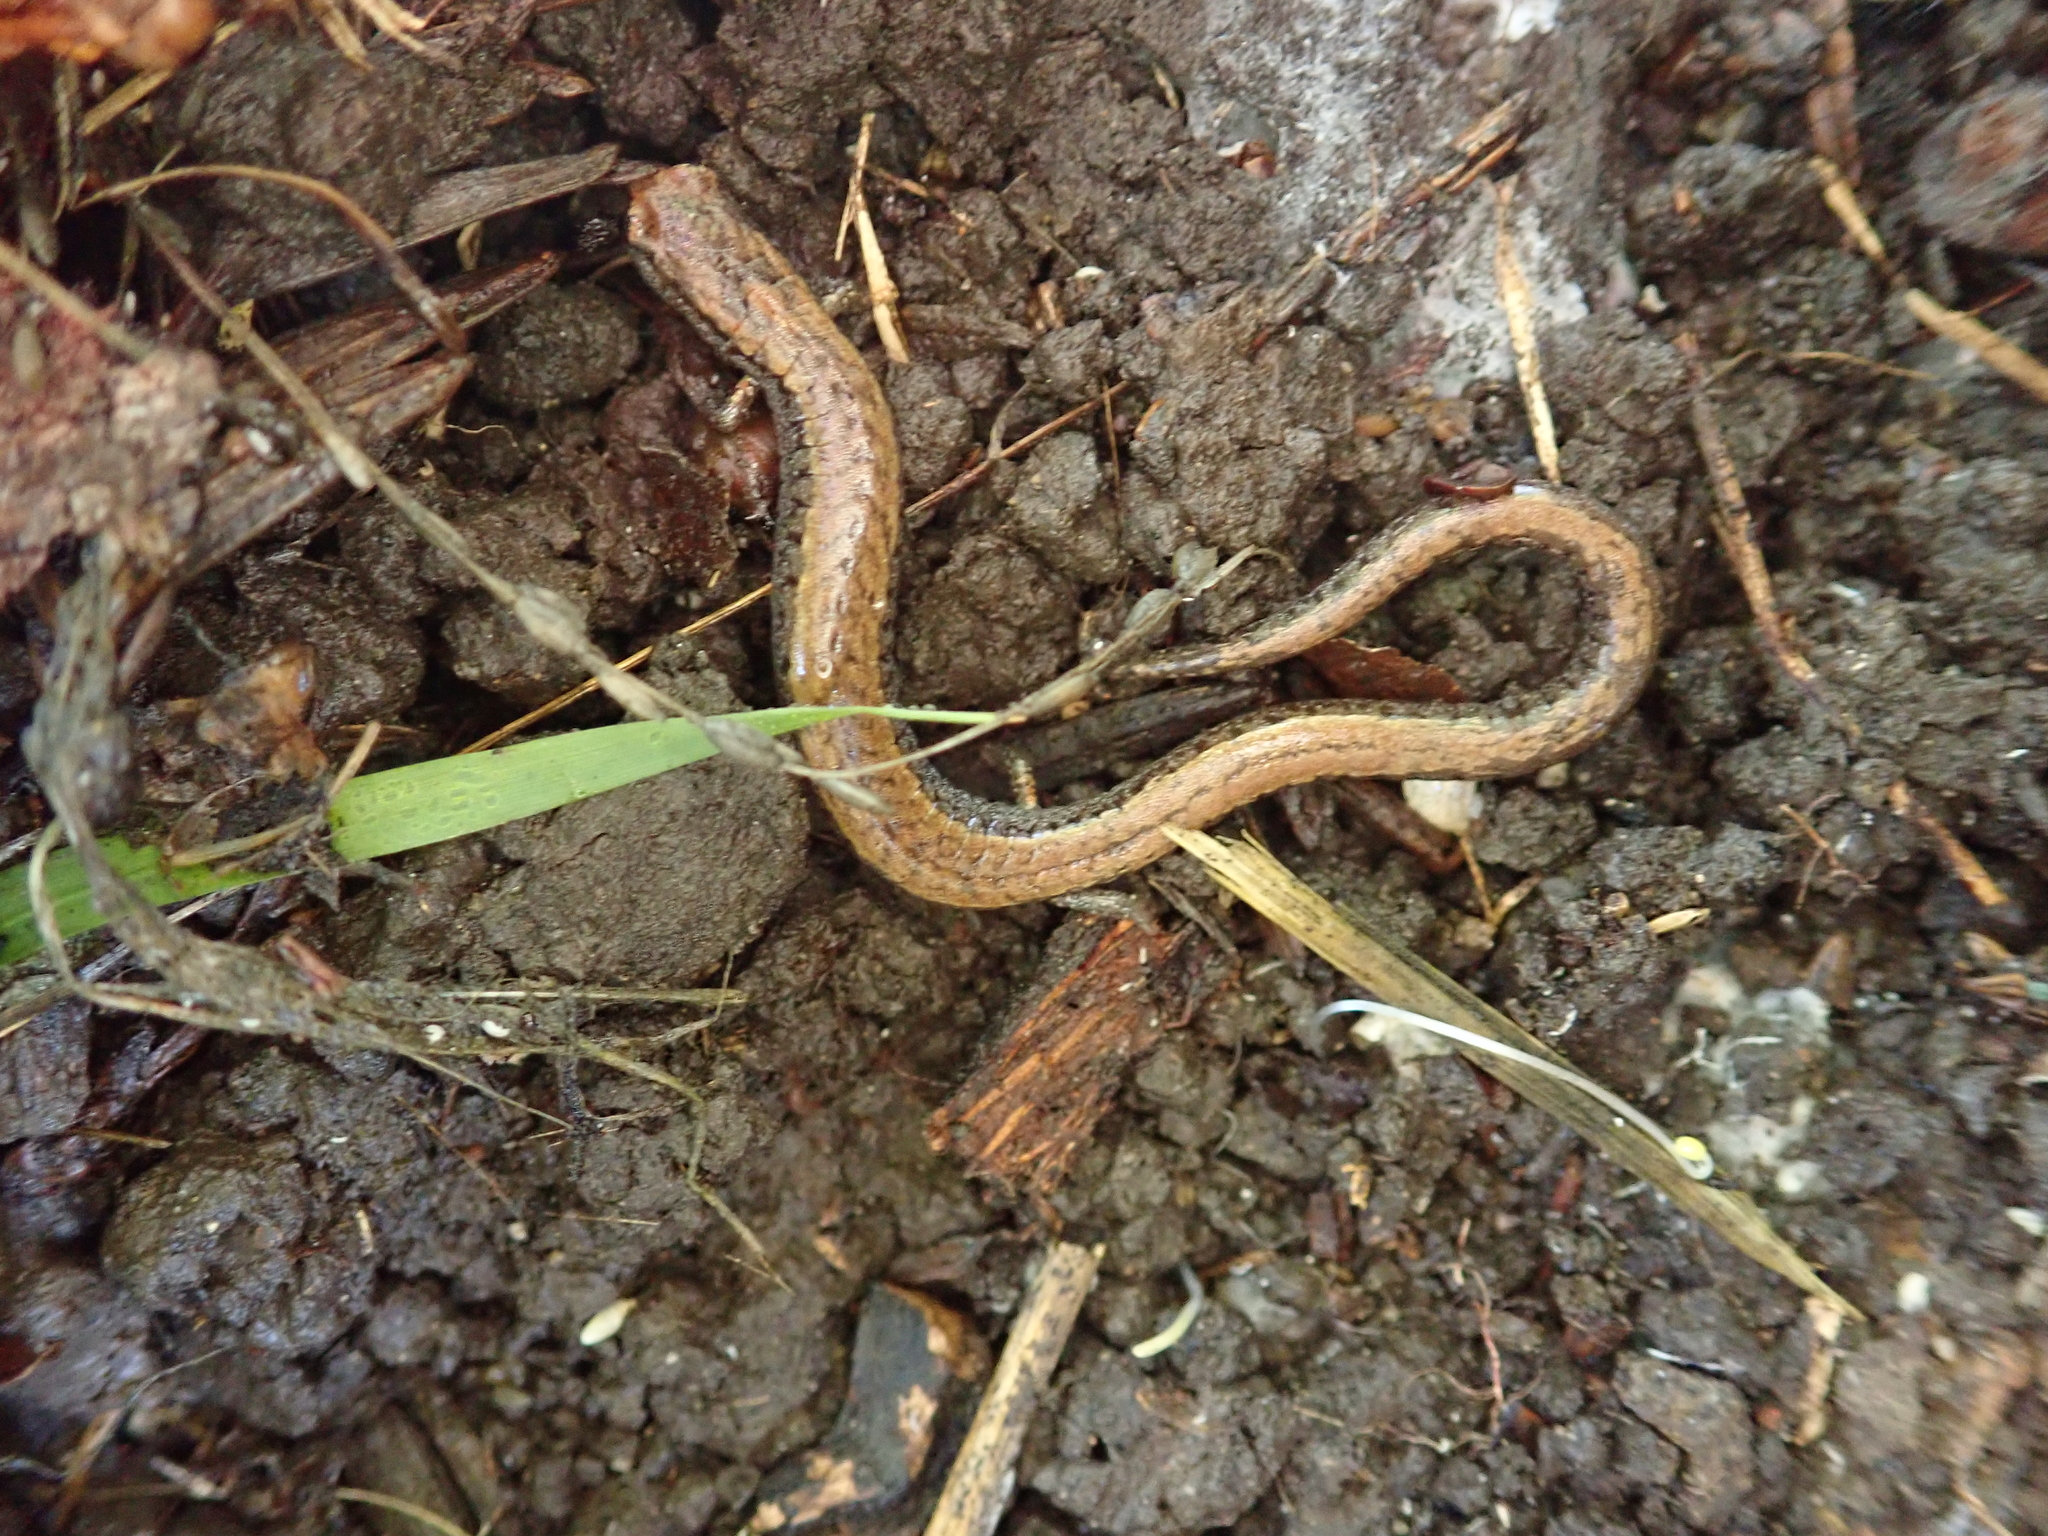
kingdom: Animalia
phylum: Chordata
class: Amphibia
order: Caudata
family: Plethodontidae
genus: Batrachoseps
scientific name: Batrachoseps attenuatus
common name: California slender salamander
